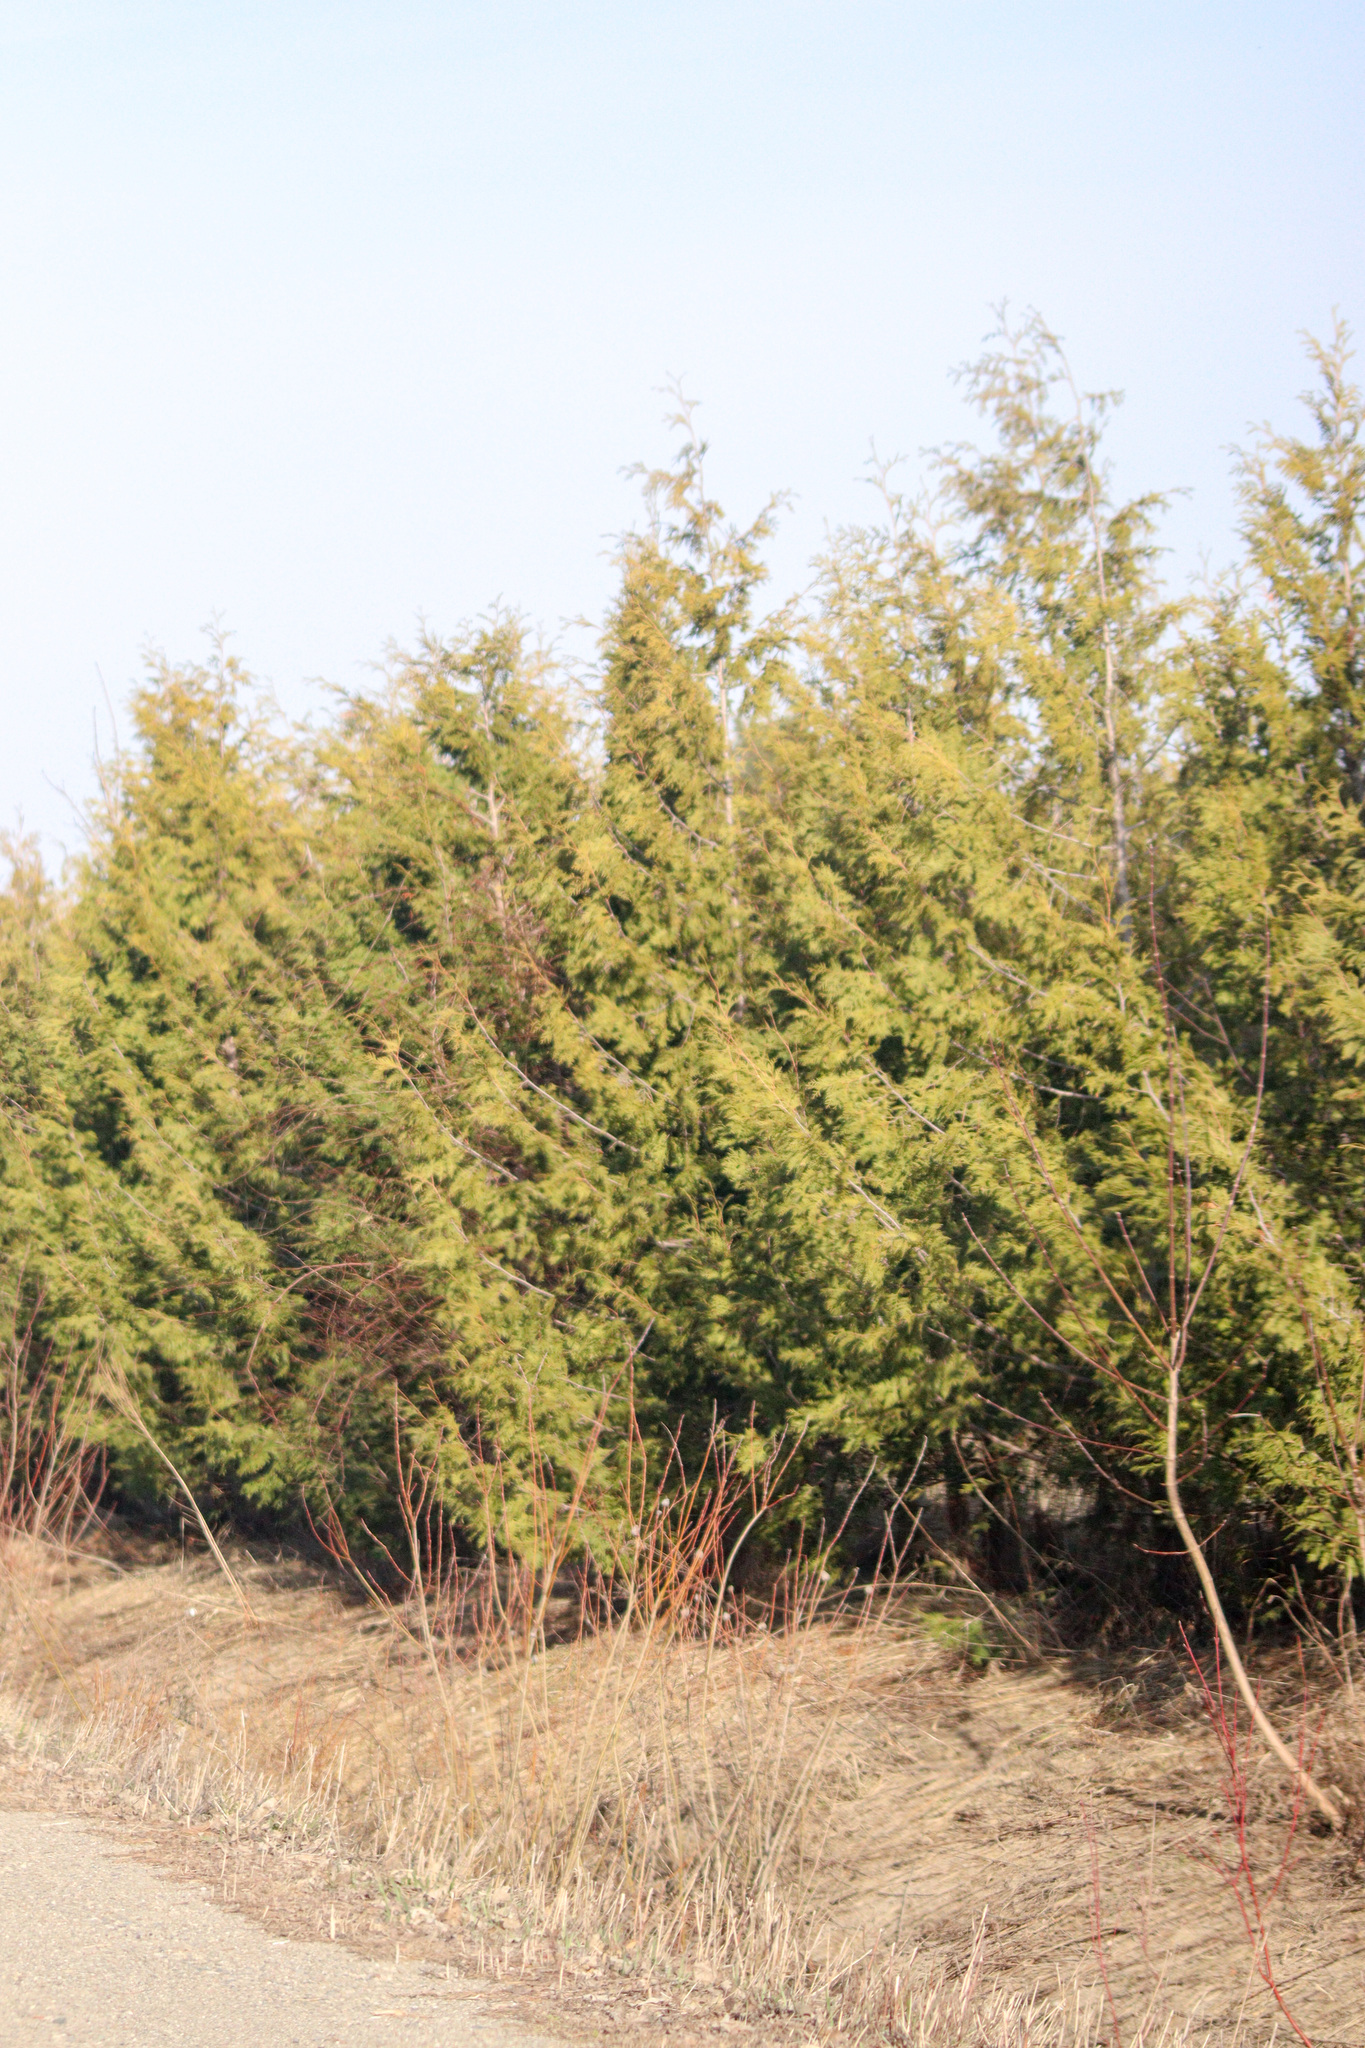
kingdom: Plantae
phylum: Tracheophyta
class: Pinopsida
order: Pinales
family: Cupressaceae
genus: Thuja
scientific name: Thuja occidentalis
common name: Northern white-cedar
